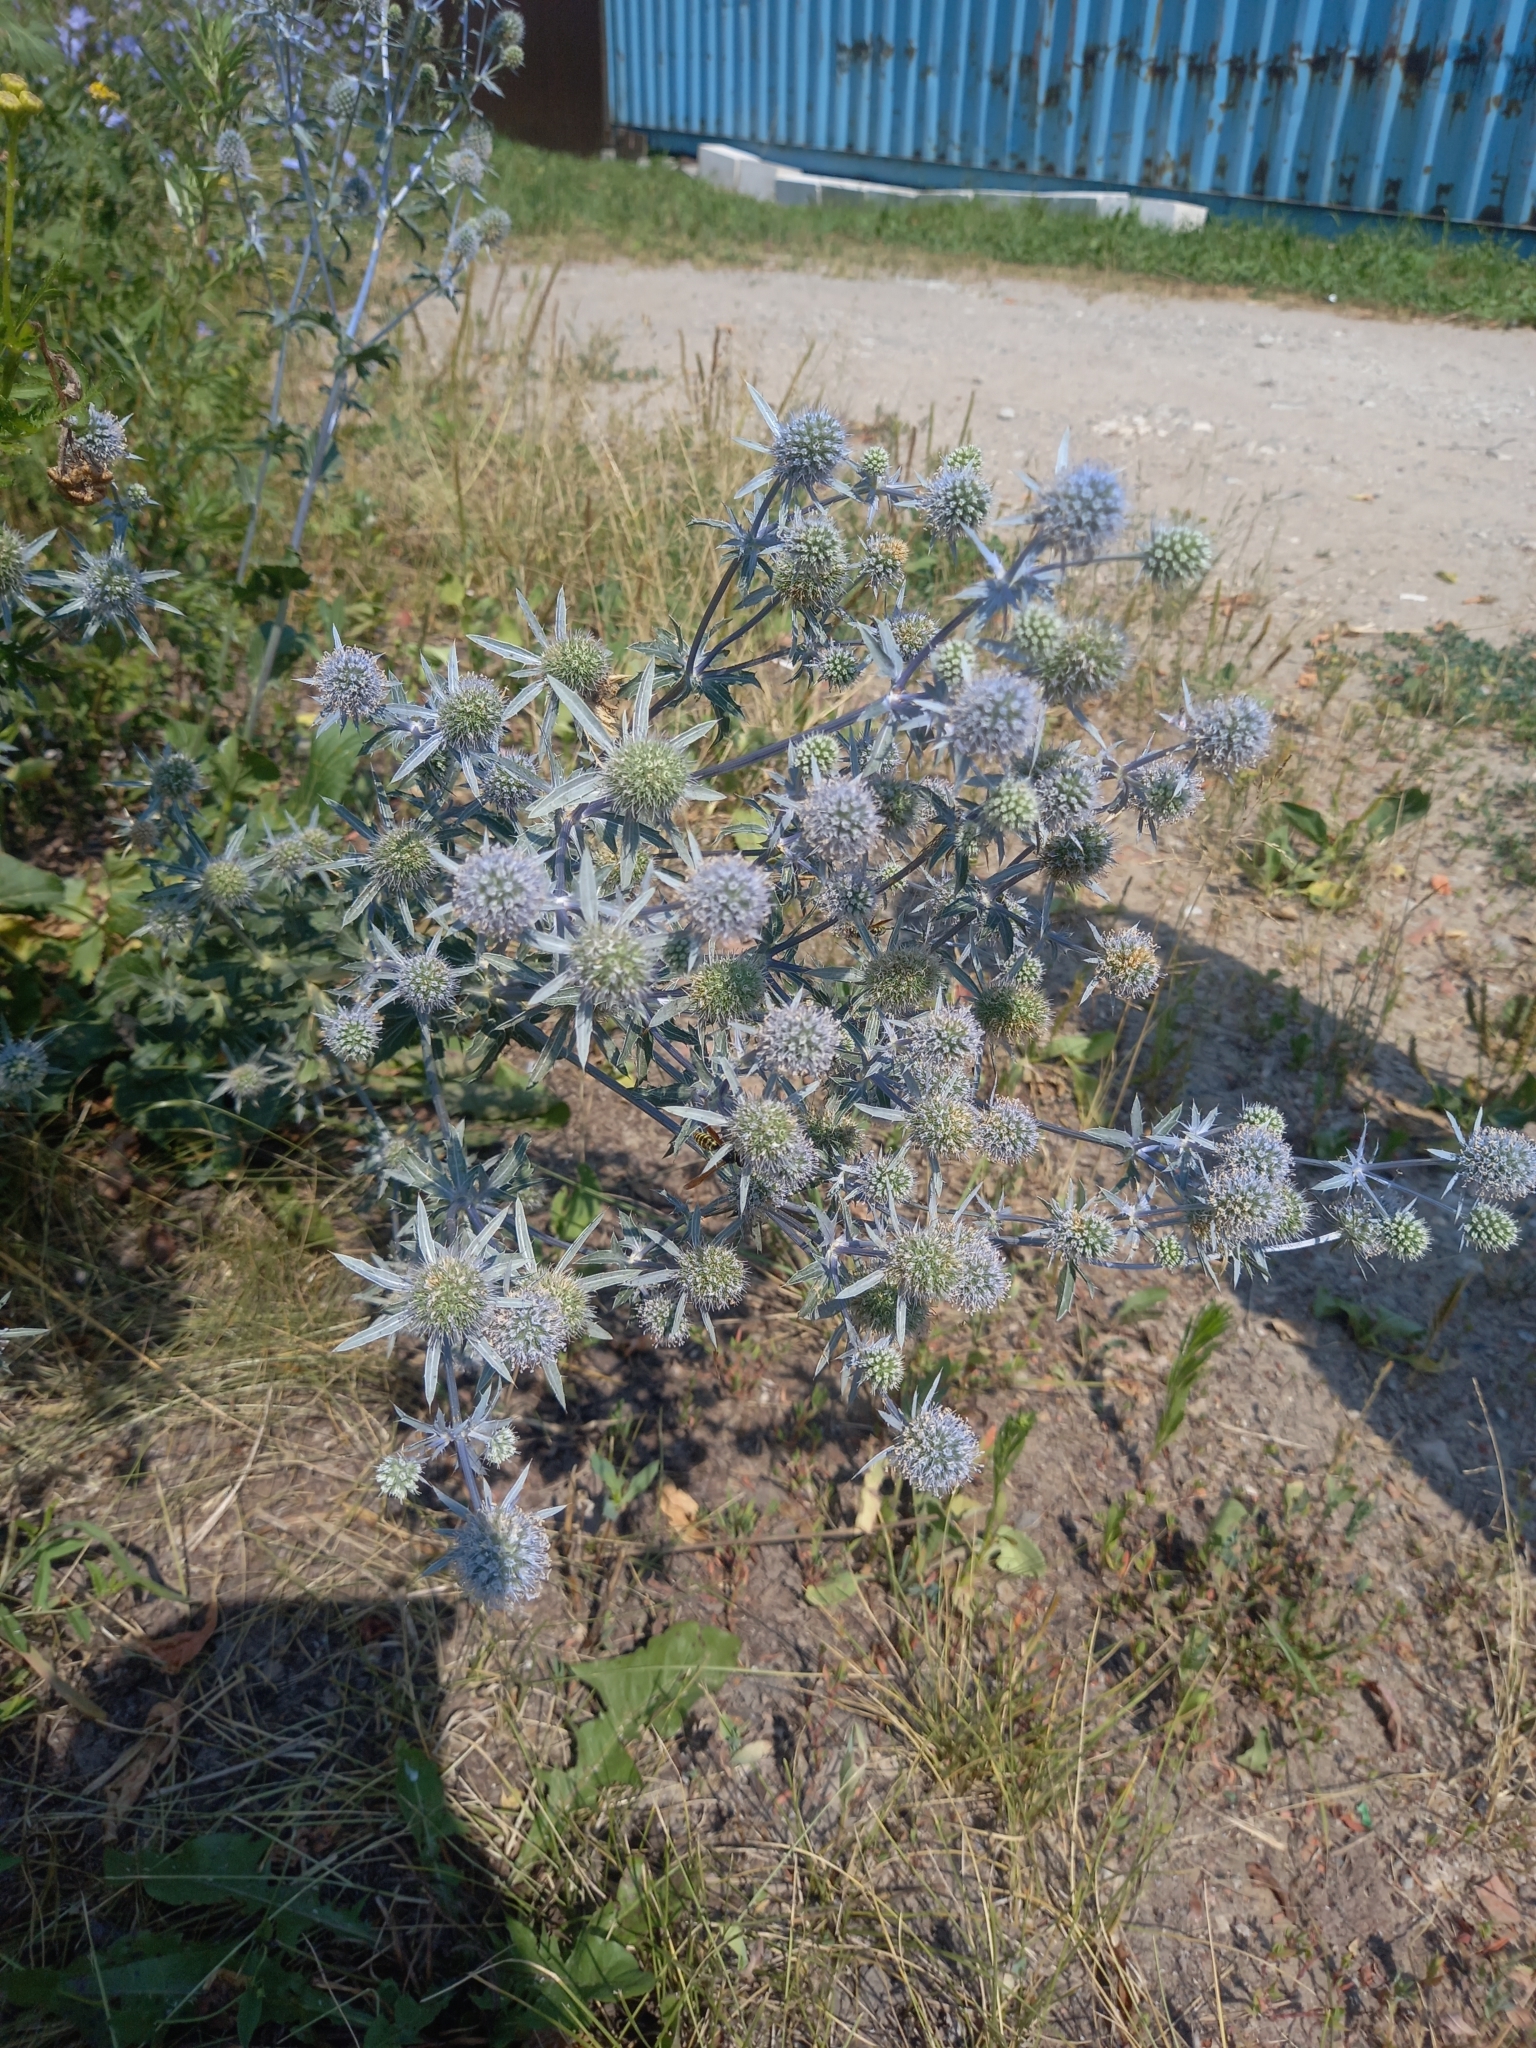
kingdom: Plantae
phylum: Tracheophyta
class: Magnoliopsida
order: Apiales
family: Apiaceae
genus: Eryngium
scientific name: Eryngium planum
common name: Blue eryngo
